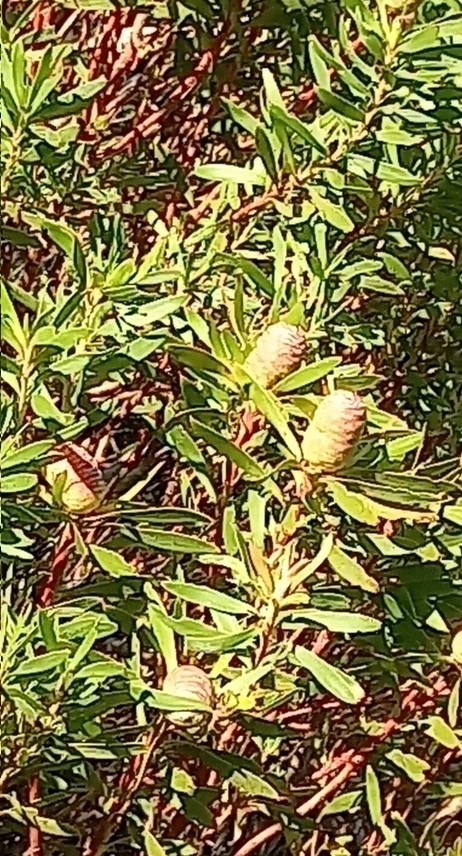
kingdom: Plantae
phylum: Tracheophyta
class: Magnoliopsida
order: Proteales
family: Proteaceae
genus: Leucadendron
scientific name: Leucadendron coniferum
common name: Dune conebush
